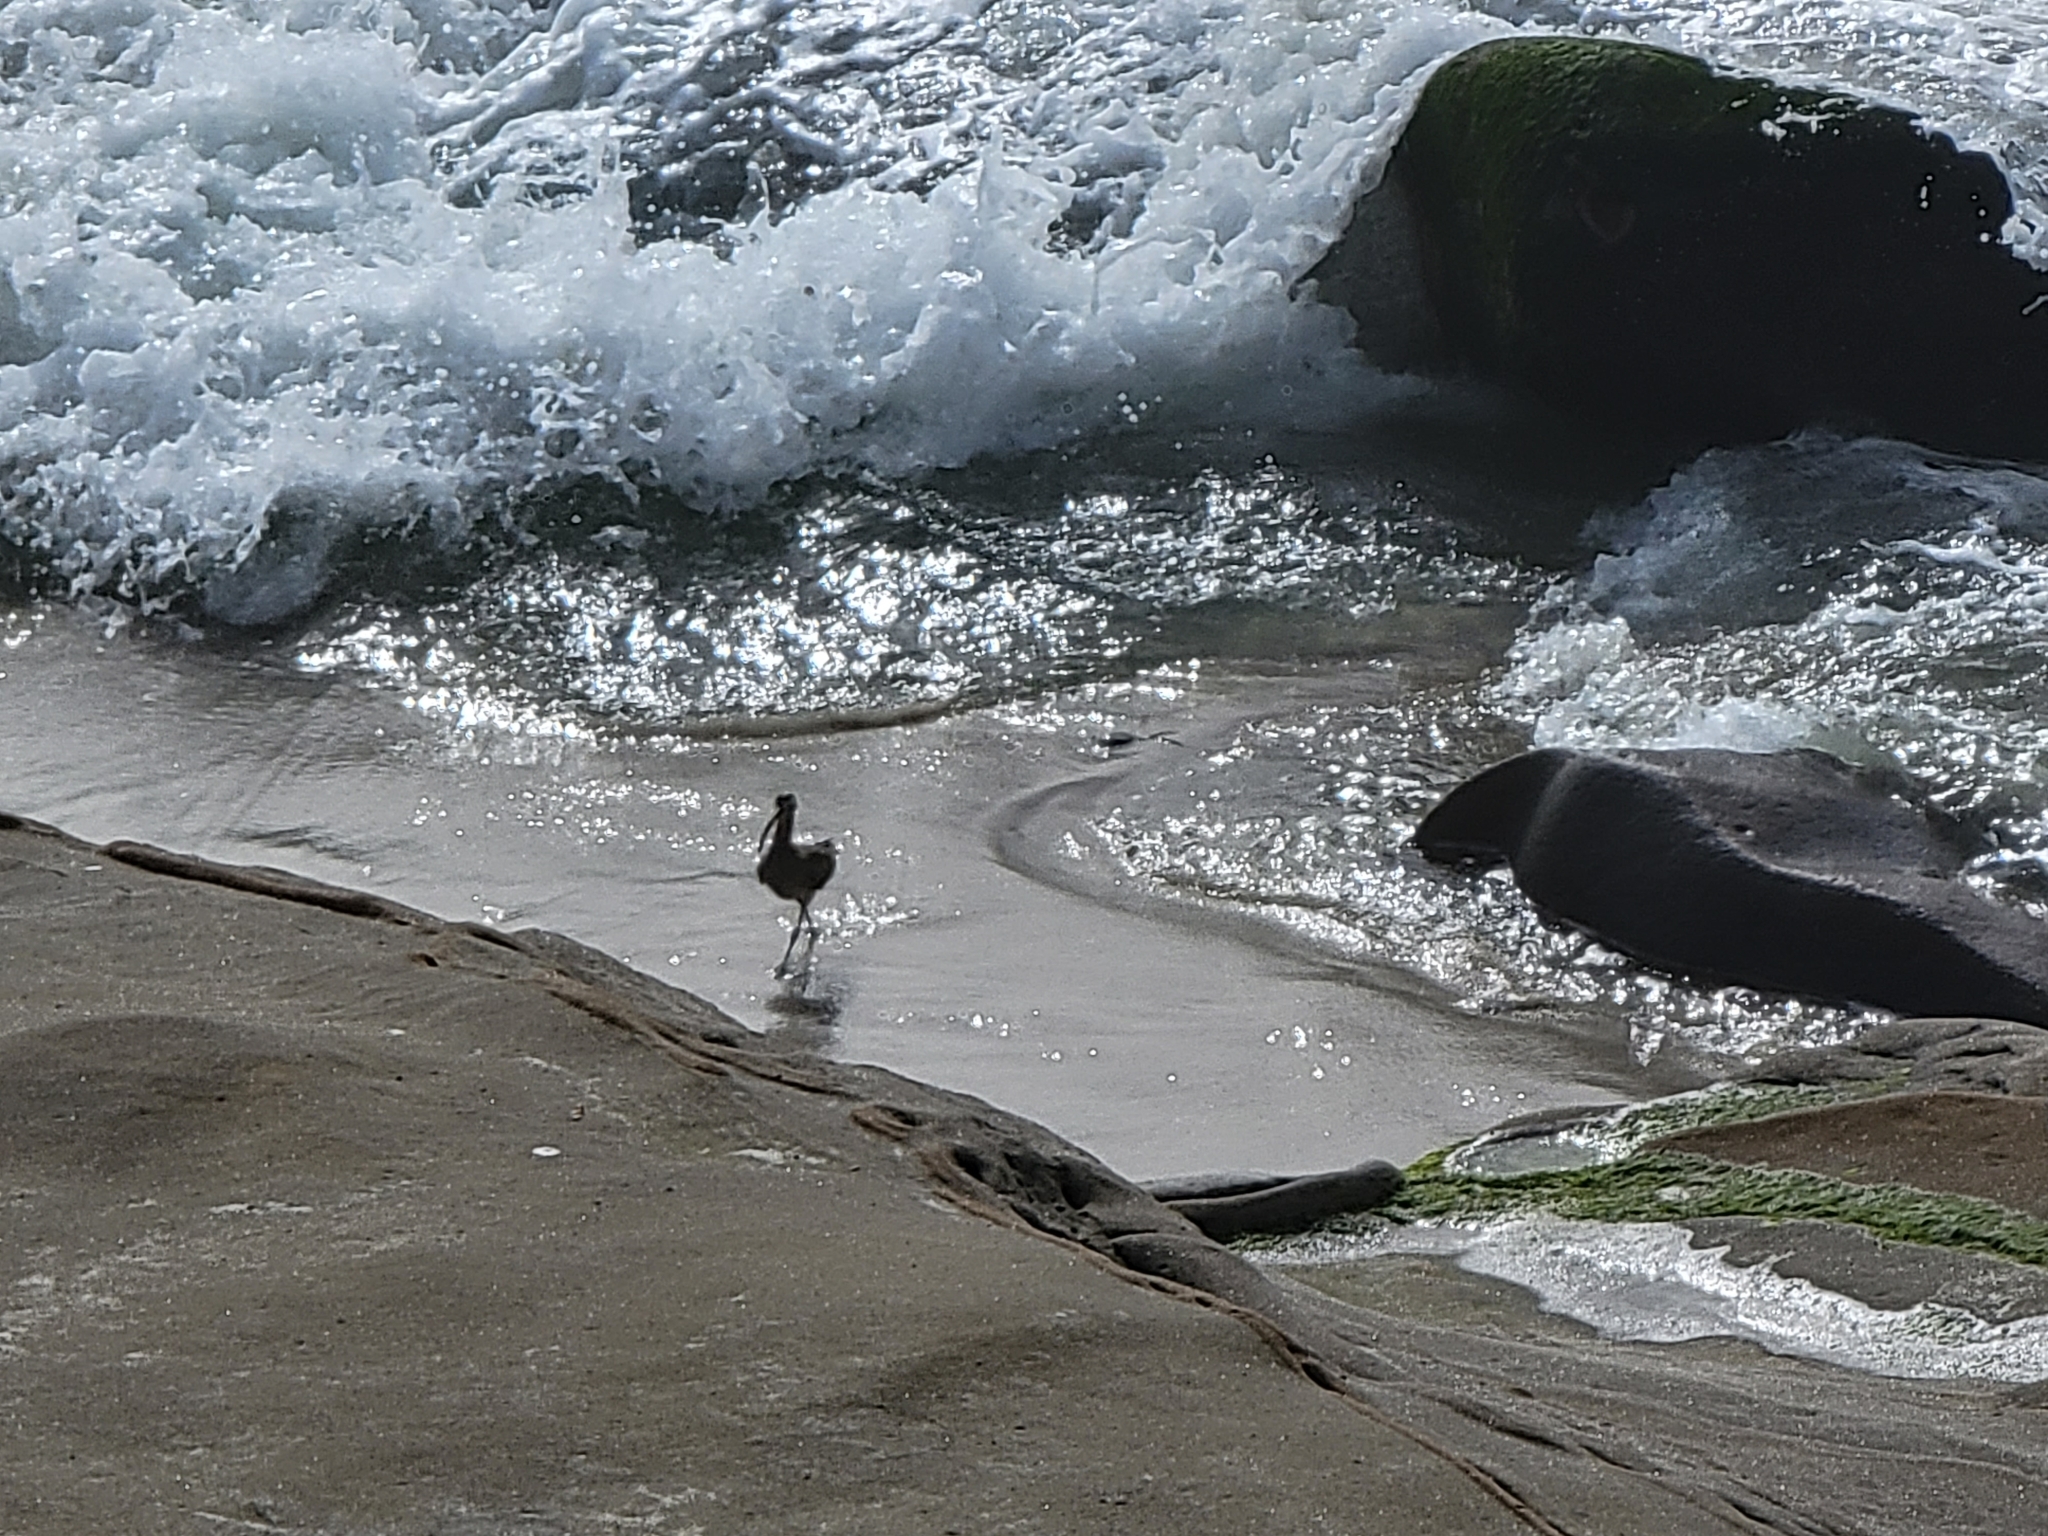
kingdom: Animalia
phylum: Chordata
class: Aves
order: Charadriiformes
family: Scolopacidae
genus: Numenius
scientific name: Numenius phaeopus
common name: Whimbrel
